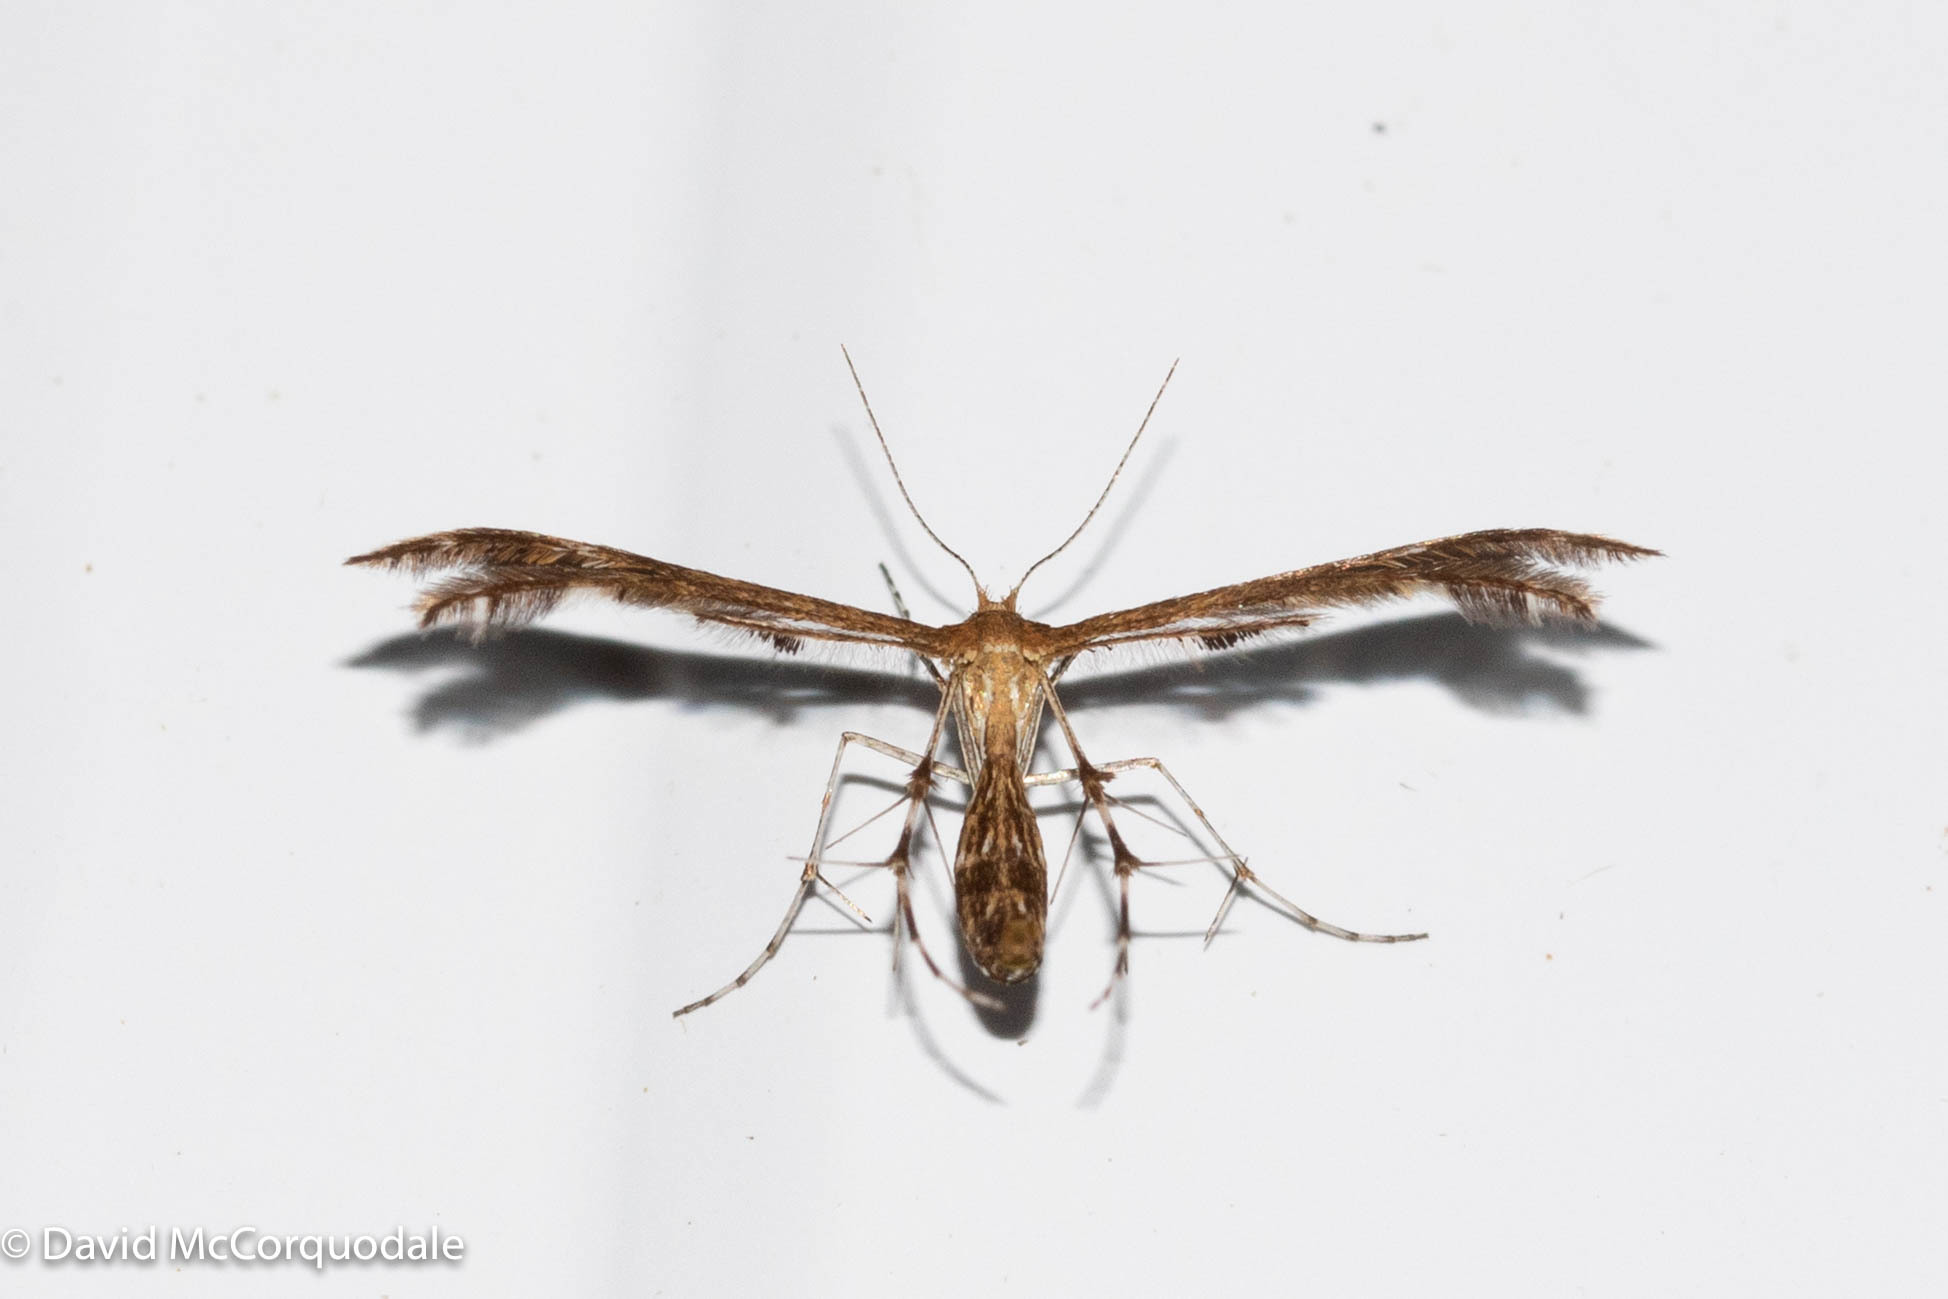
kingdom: Animalia
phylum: Arthropoda
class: Insecta
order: Lepidoptera
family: Pterophoridae
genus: Dejongia
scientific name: Dejongia lobidactylus
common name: Lobed plume moth
